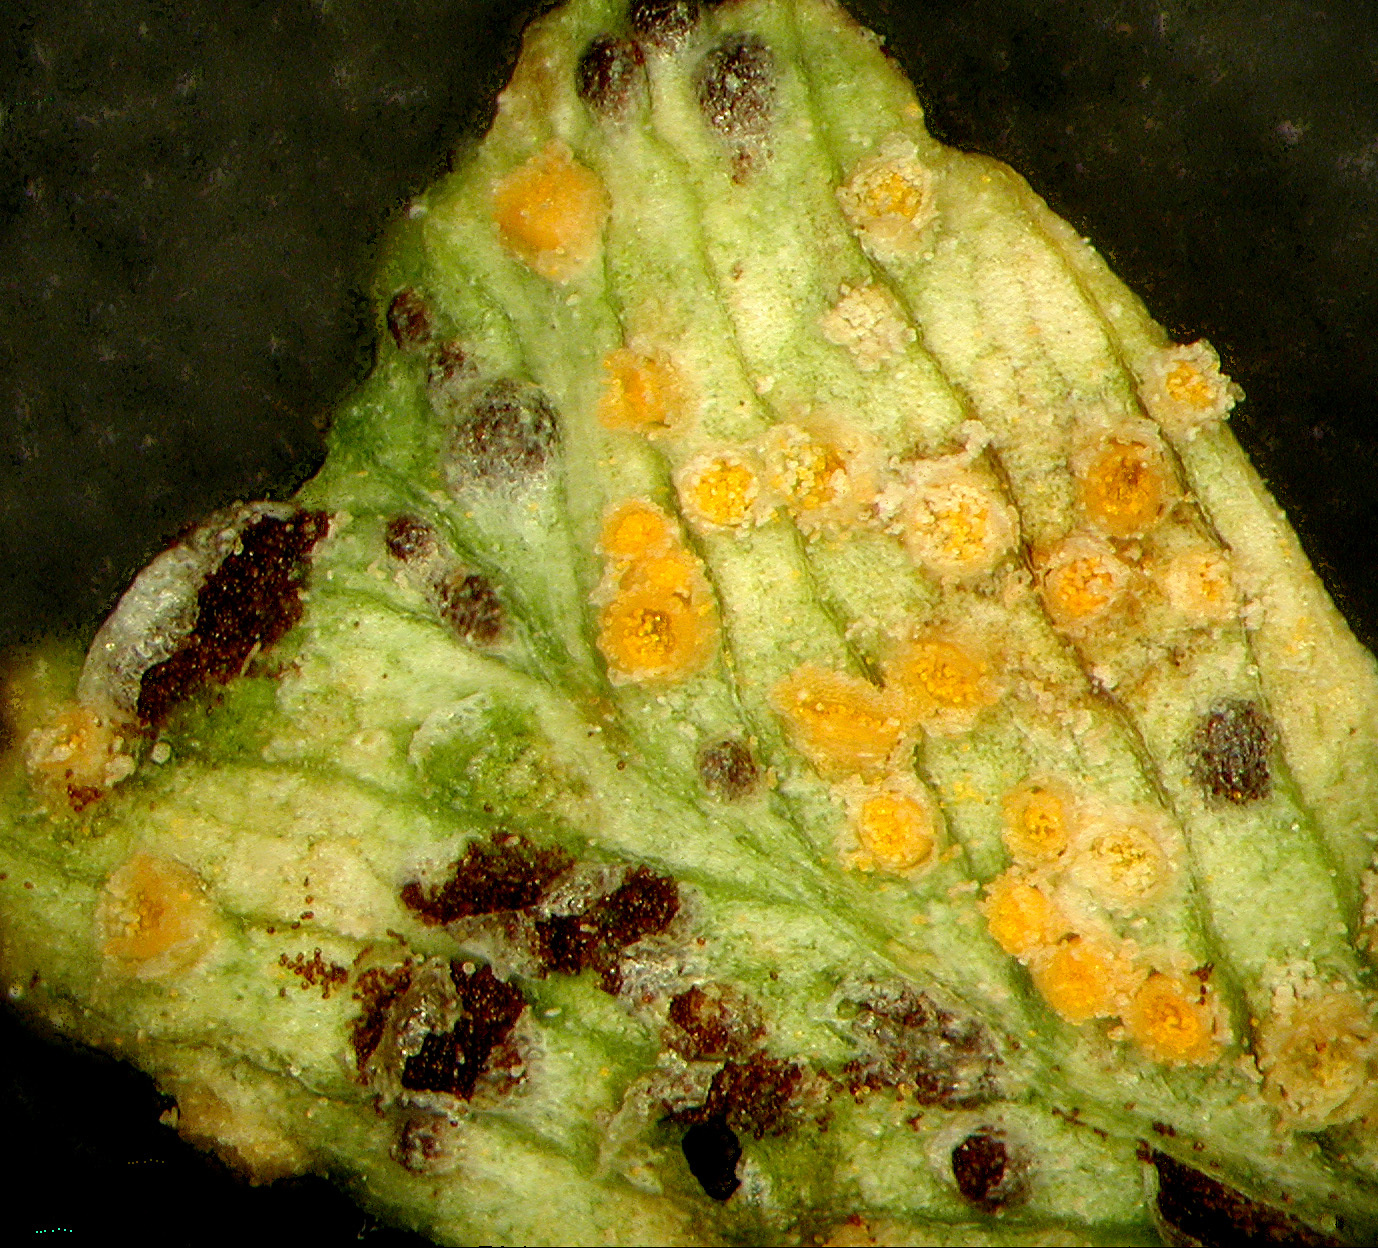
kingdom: Fungi
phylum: Basidiomycota
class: Pucciniomycetes
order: Pucciniales
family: Pucciniaceae
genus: Uromyces
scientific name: Uromyces minor
